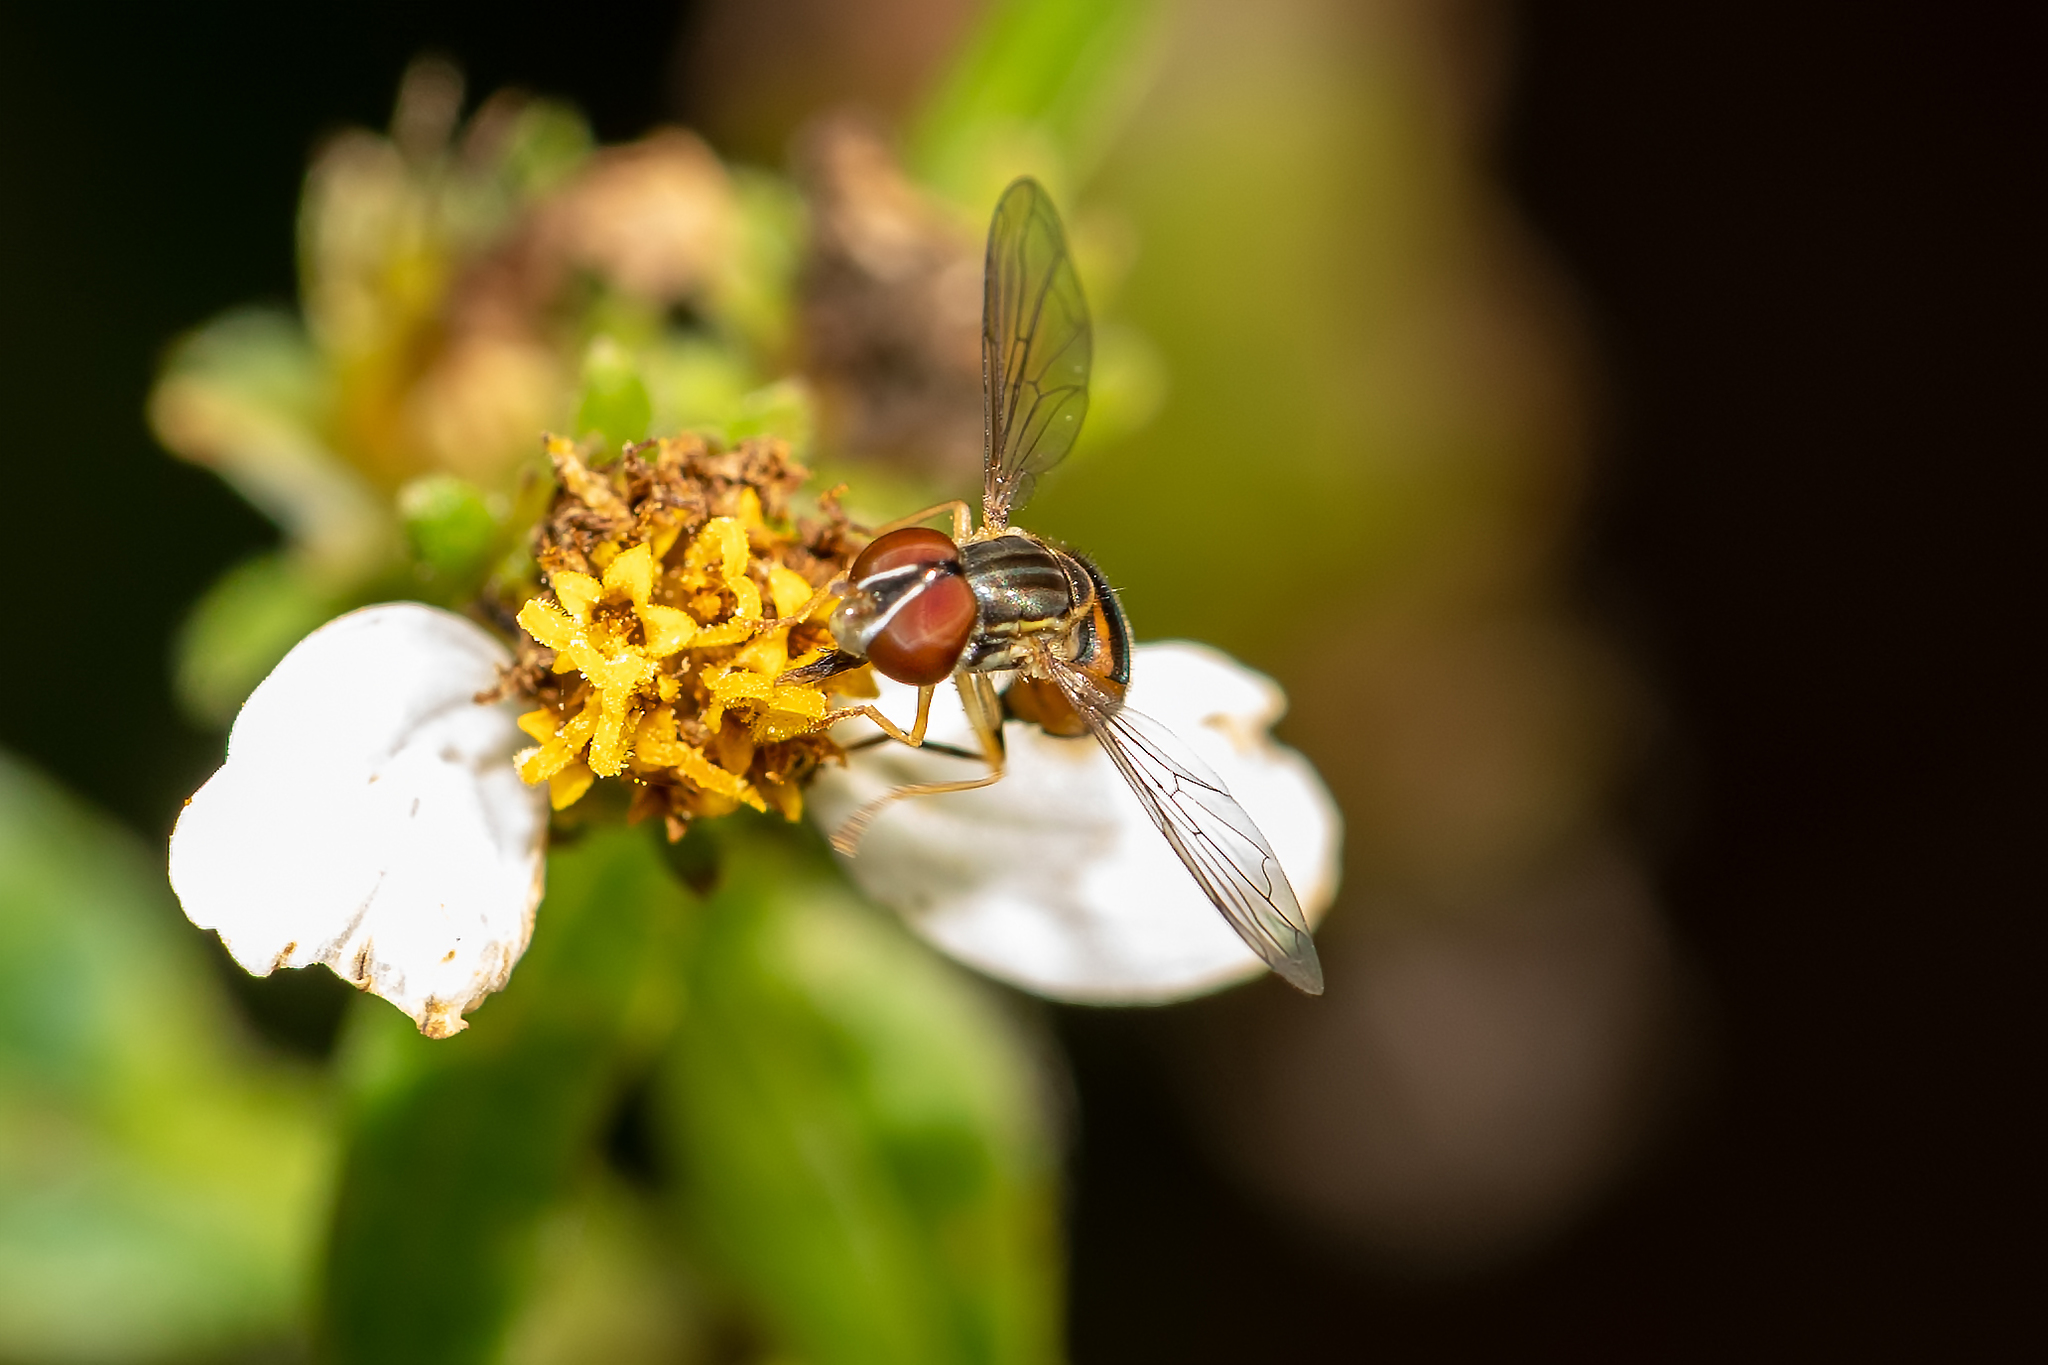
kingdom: Animalia
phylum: Arthropoda
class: Insecta
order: Diptera
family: Syrphidae
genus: Toxomerus
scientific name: Toxomerus
